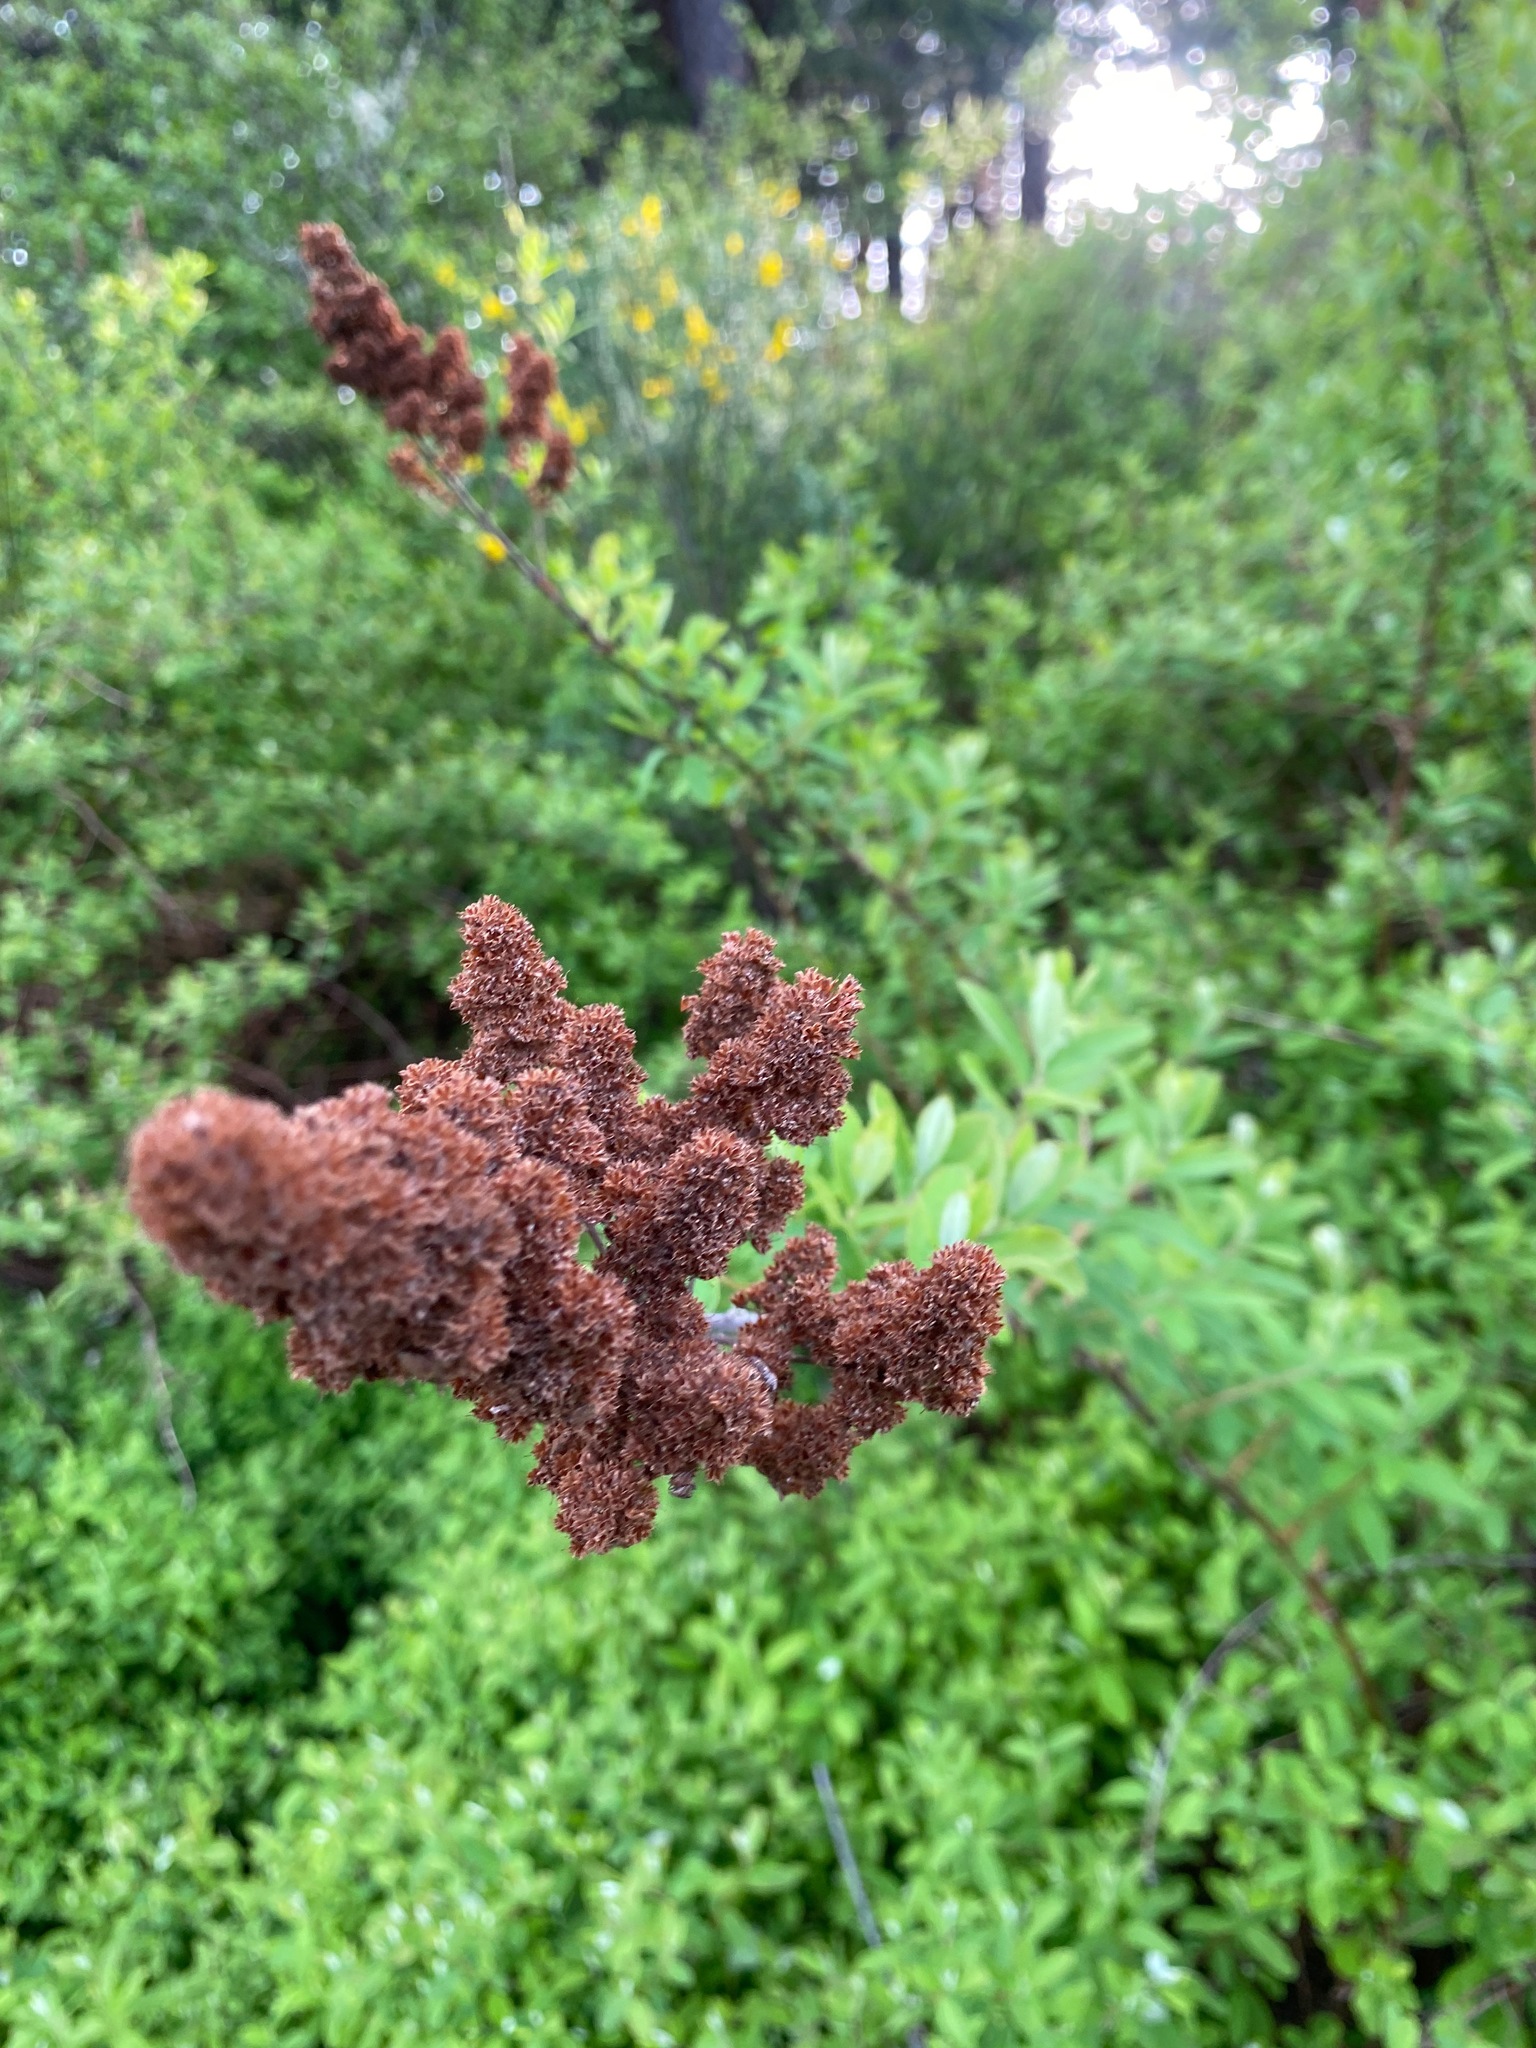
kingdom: Plantae
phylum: Tracheophyta
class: Magnoliopsida
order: Rosales
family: Rosaceae
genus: Spiraea
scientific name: Spiraea douglasii
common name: Steeplebush
